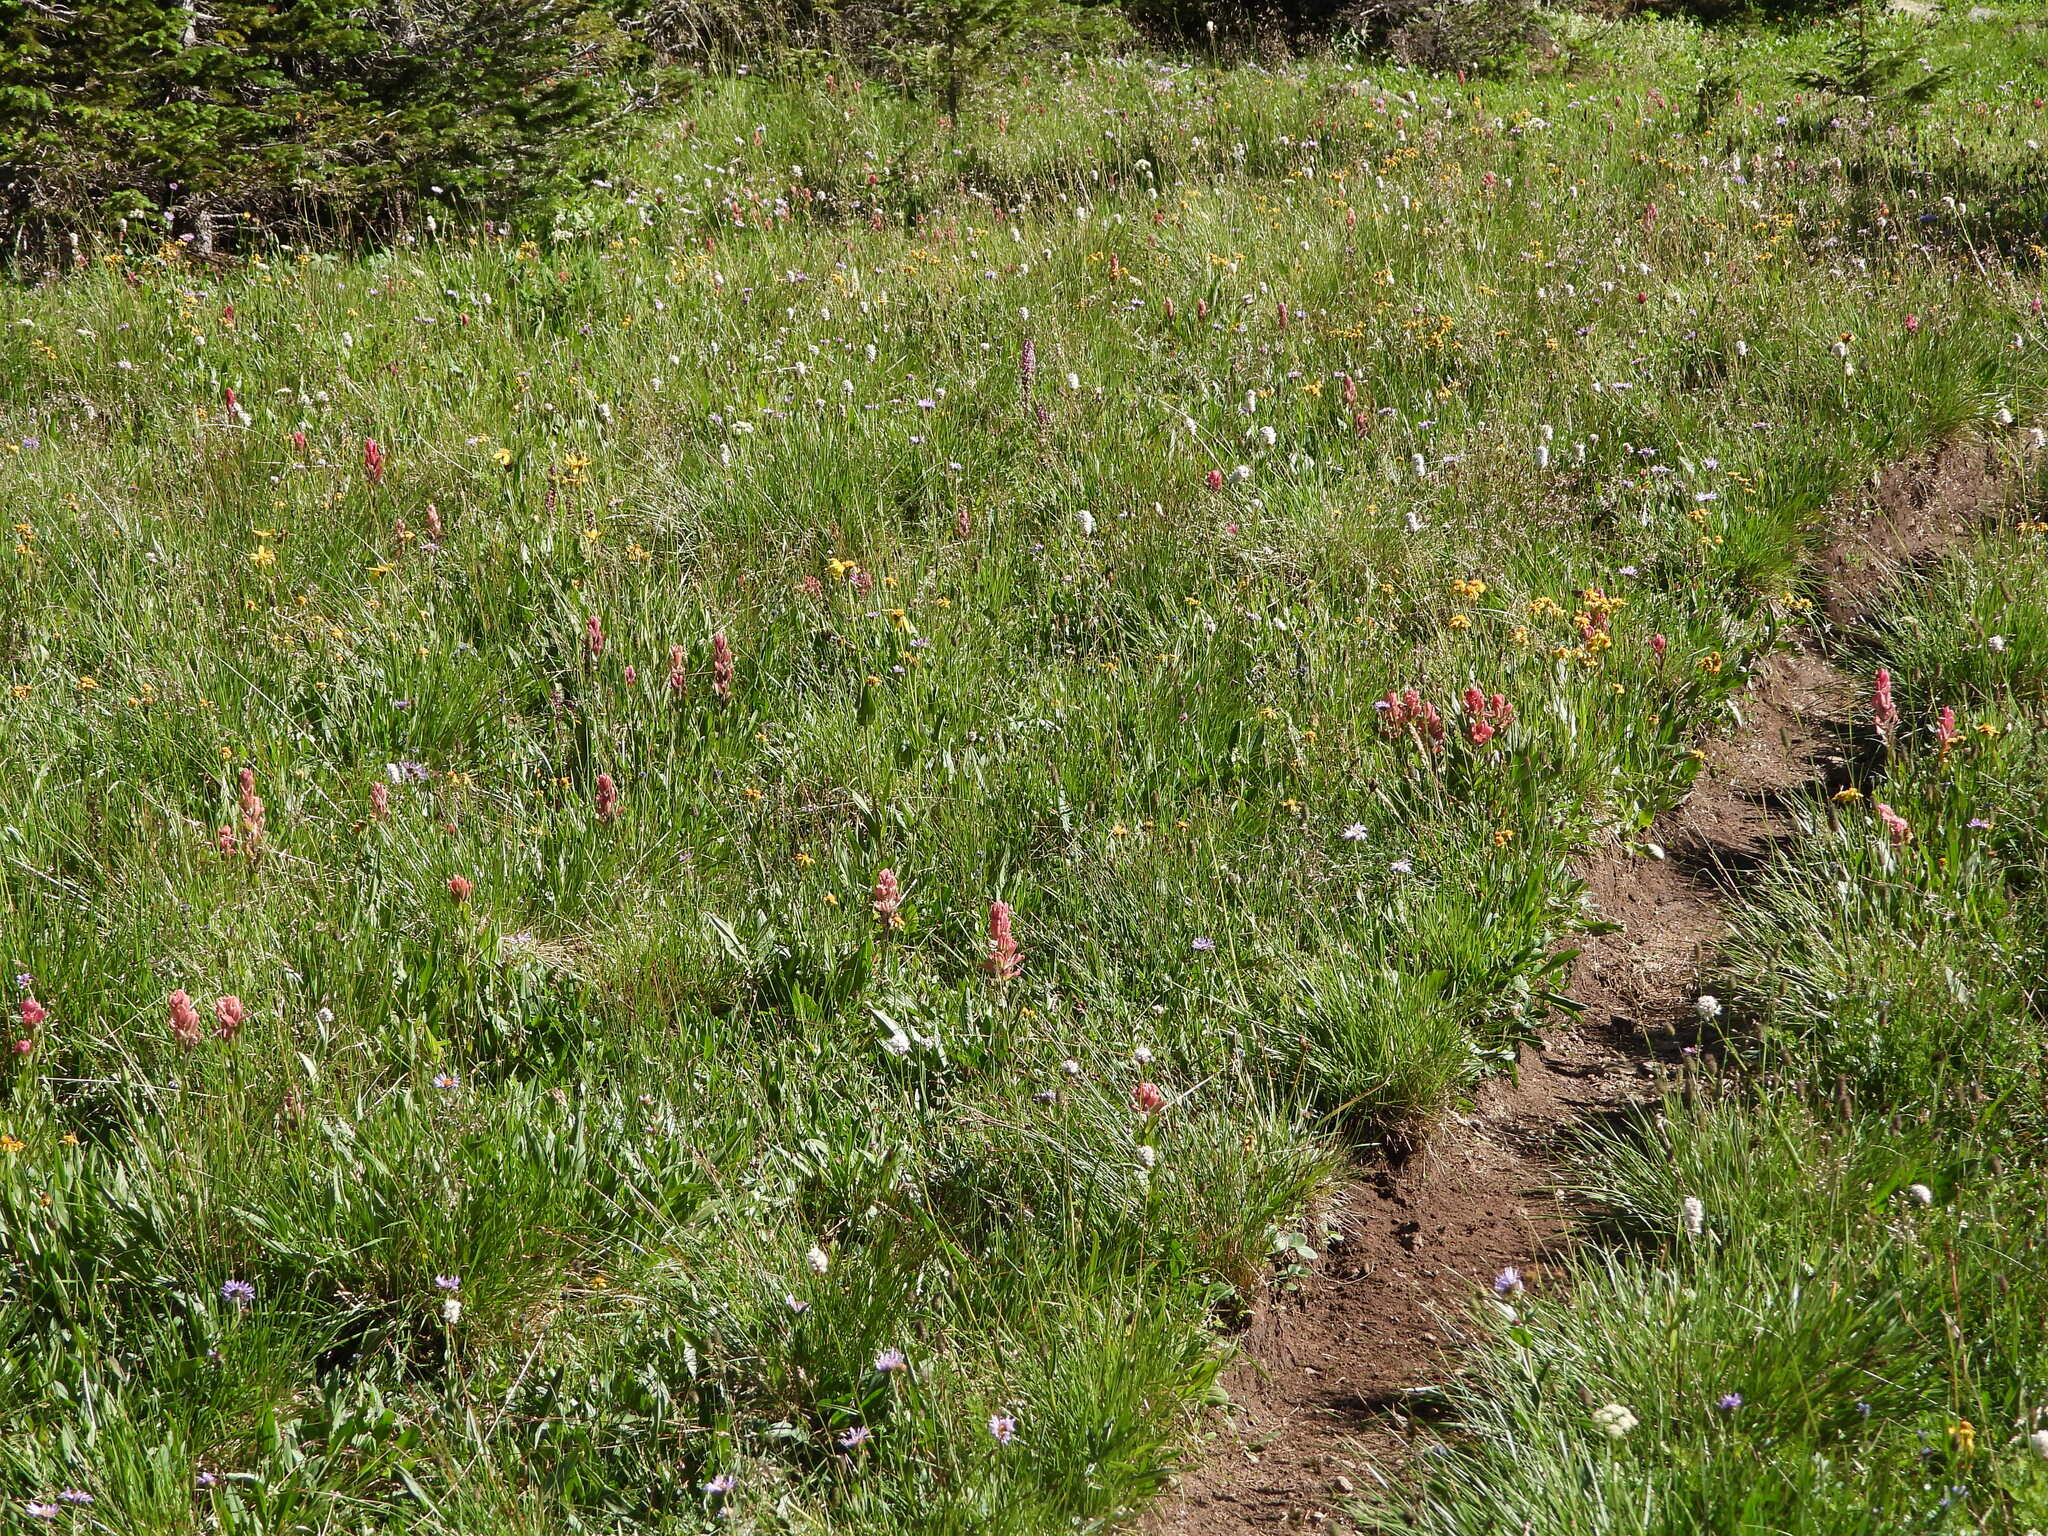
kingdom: Plantae
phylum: Tracheophyta
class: Magnoliopsida
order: Lamiales
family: Orobanchaceae
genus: Castilleja
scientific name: Castilleja rhexifolia
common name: Rocky mountain paintbrush
